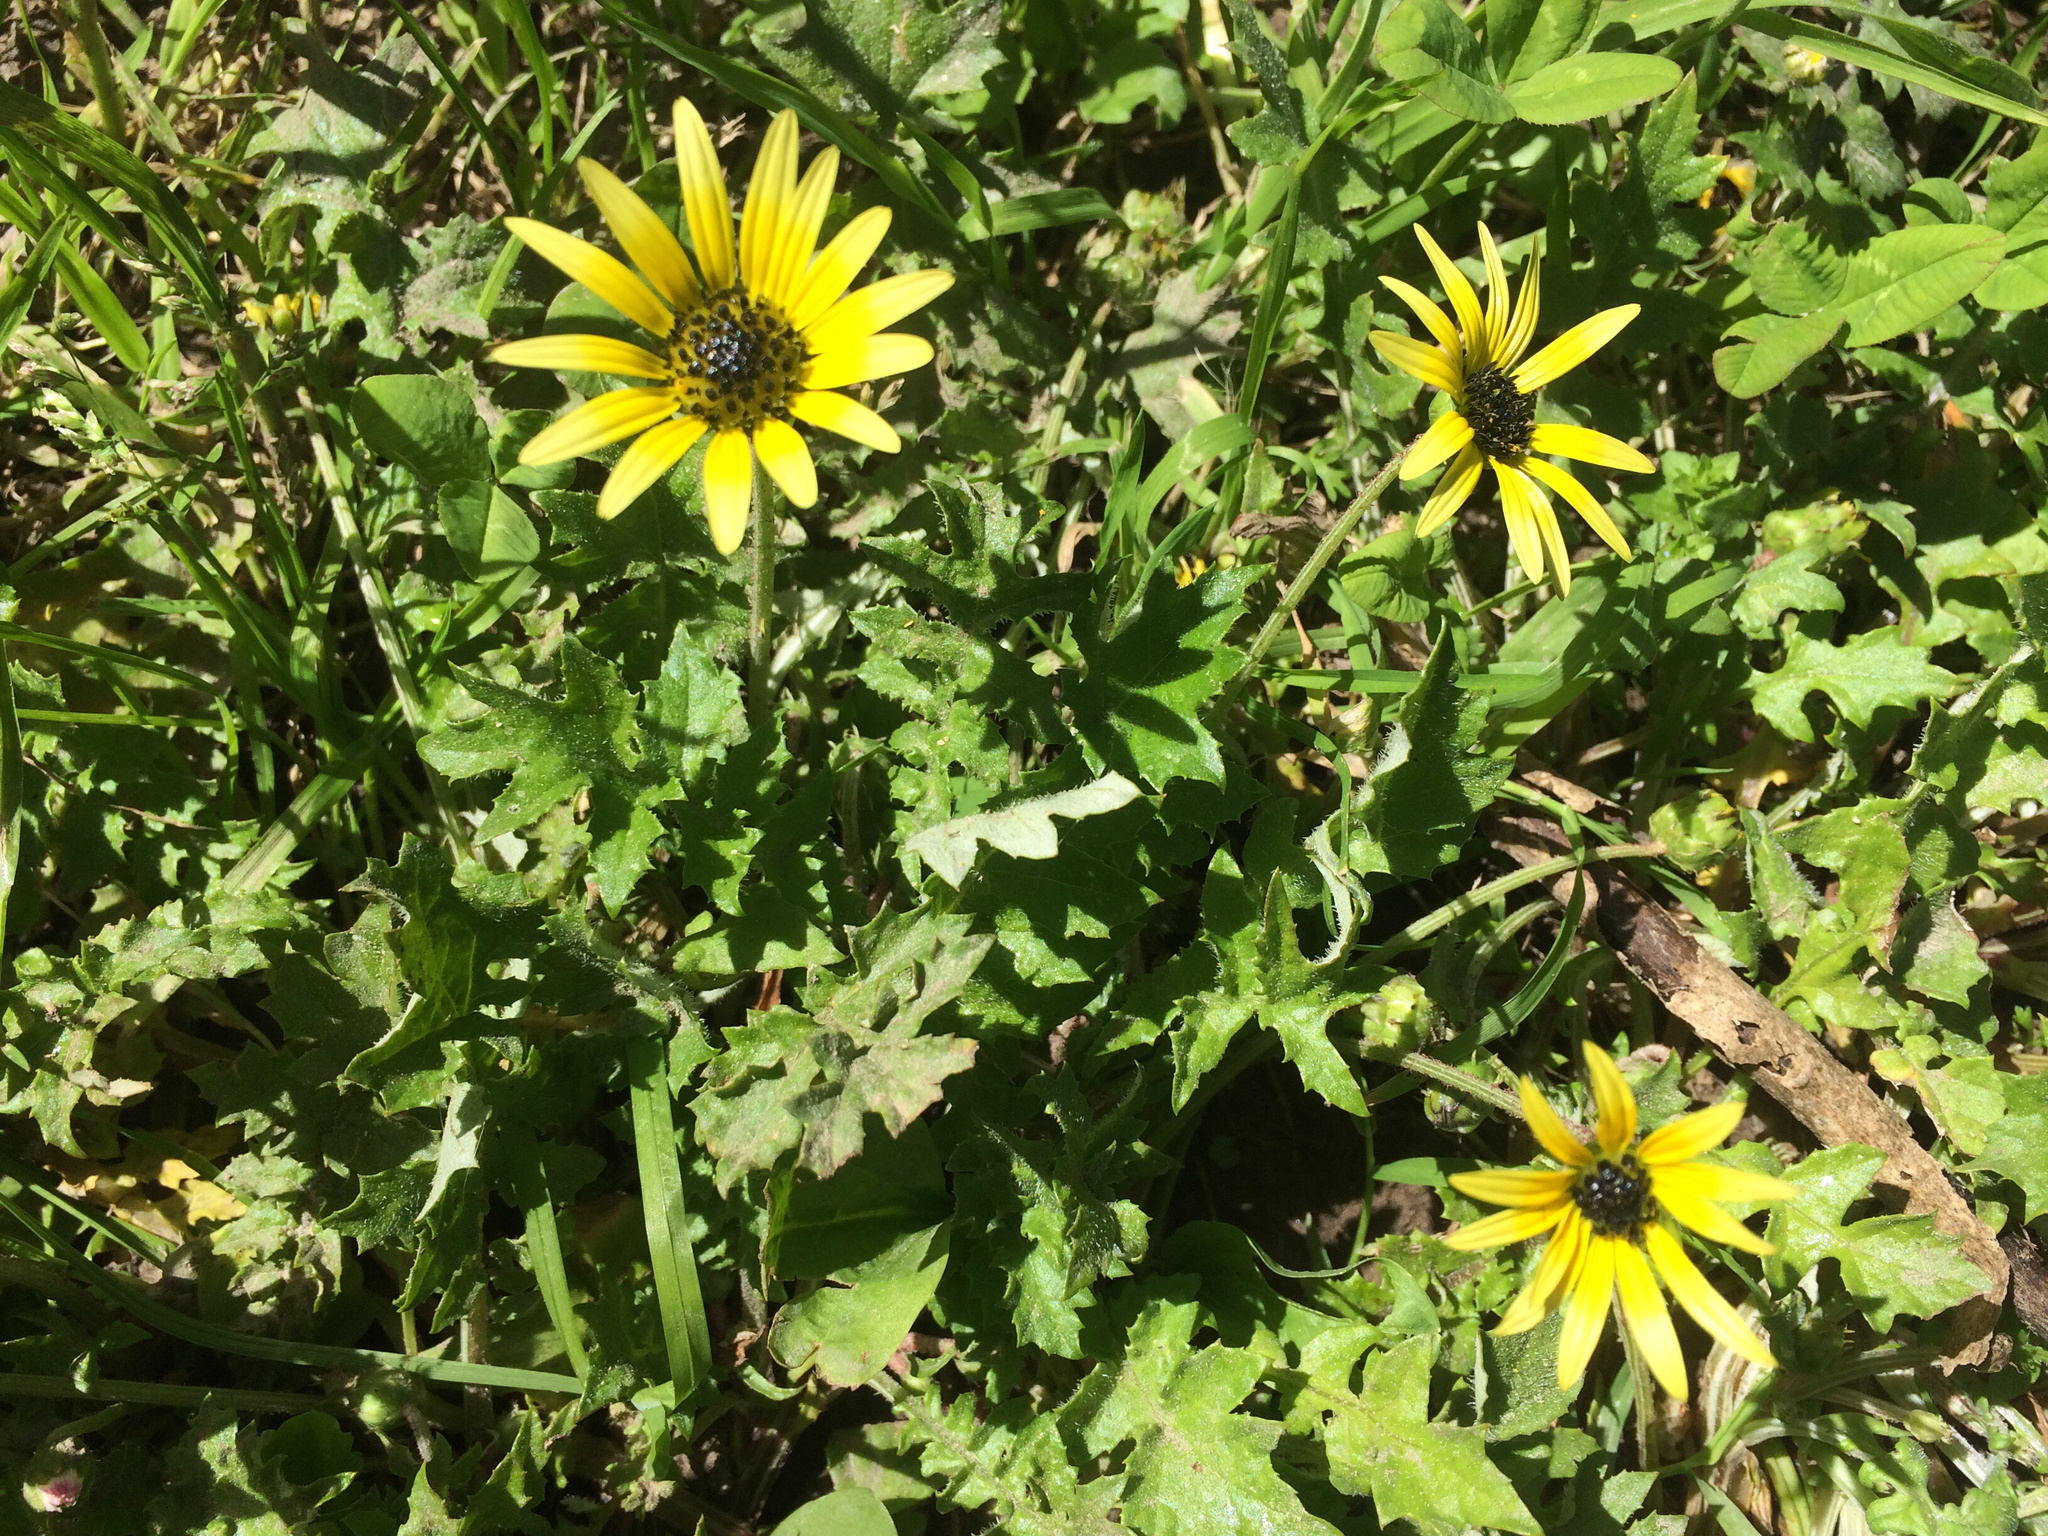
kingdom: Plantae
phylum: Tracheophyta
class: Magnoliopsida
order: Asterales
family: Asteraceae
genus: Arctotheca
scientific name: Arctotheca calendula
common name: Capeweed
